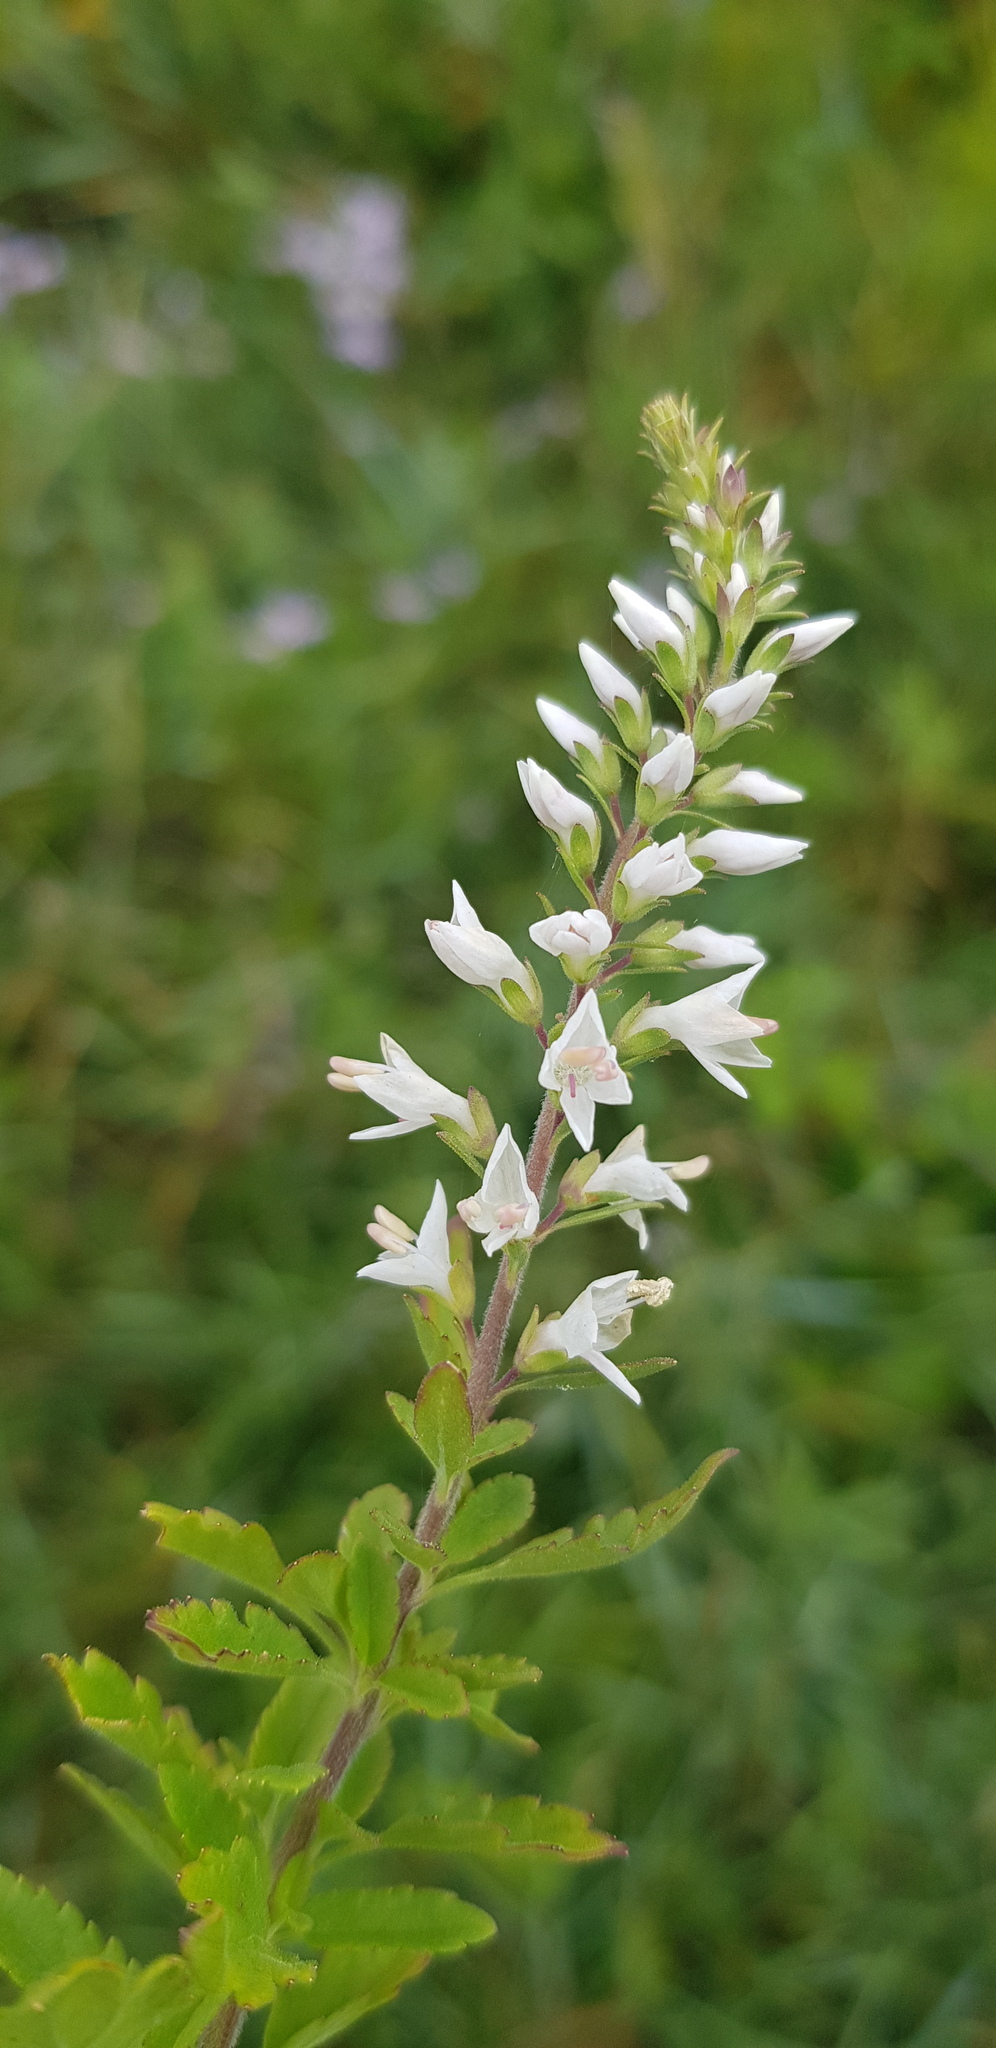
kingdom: Plantae
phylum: Tracheophyta
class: Magnoliopsida
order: Lamiales
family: Plantaginaceae
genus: Veronica
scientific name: Veronica daurica
